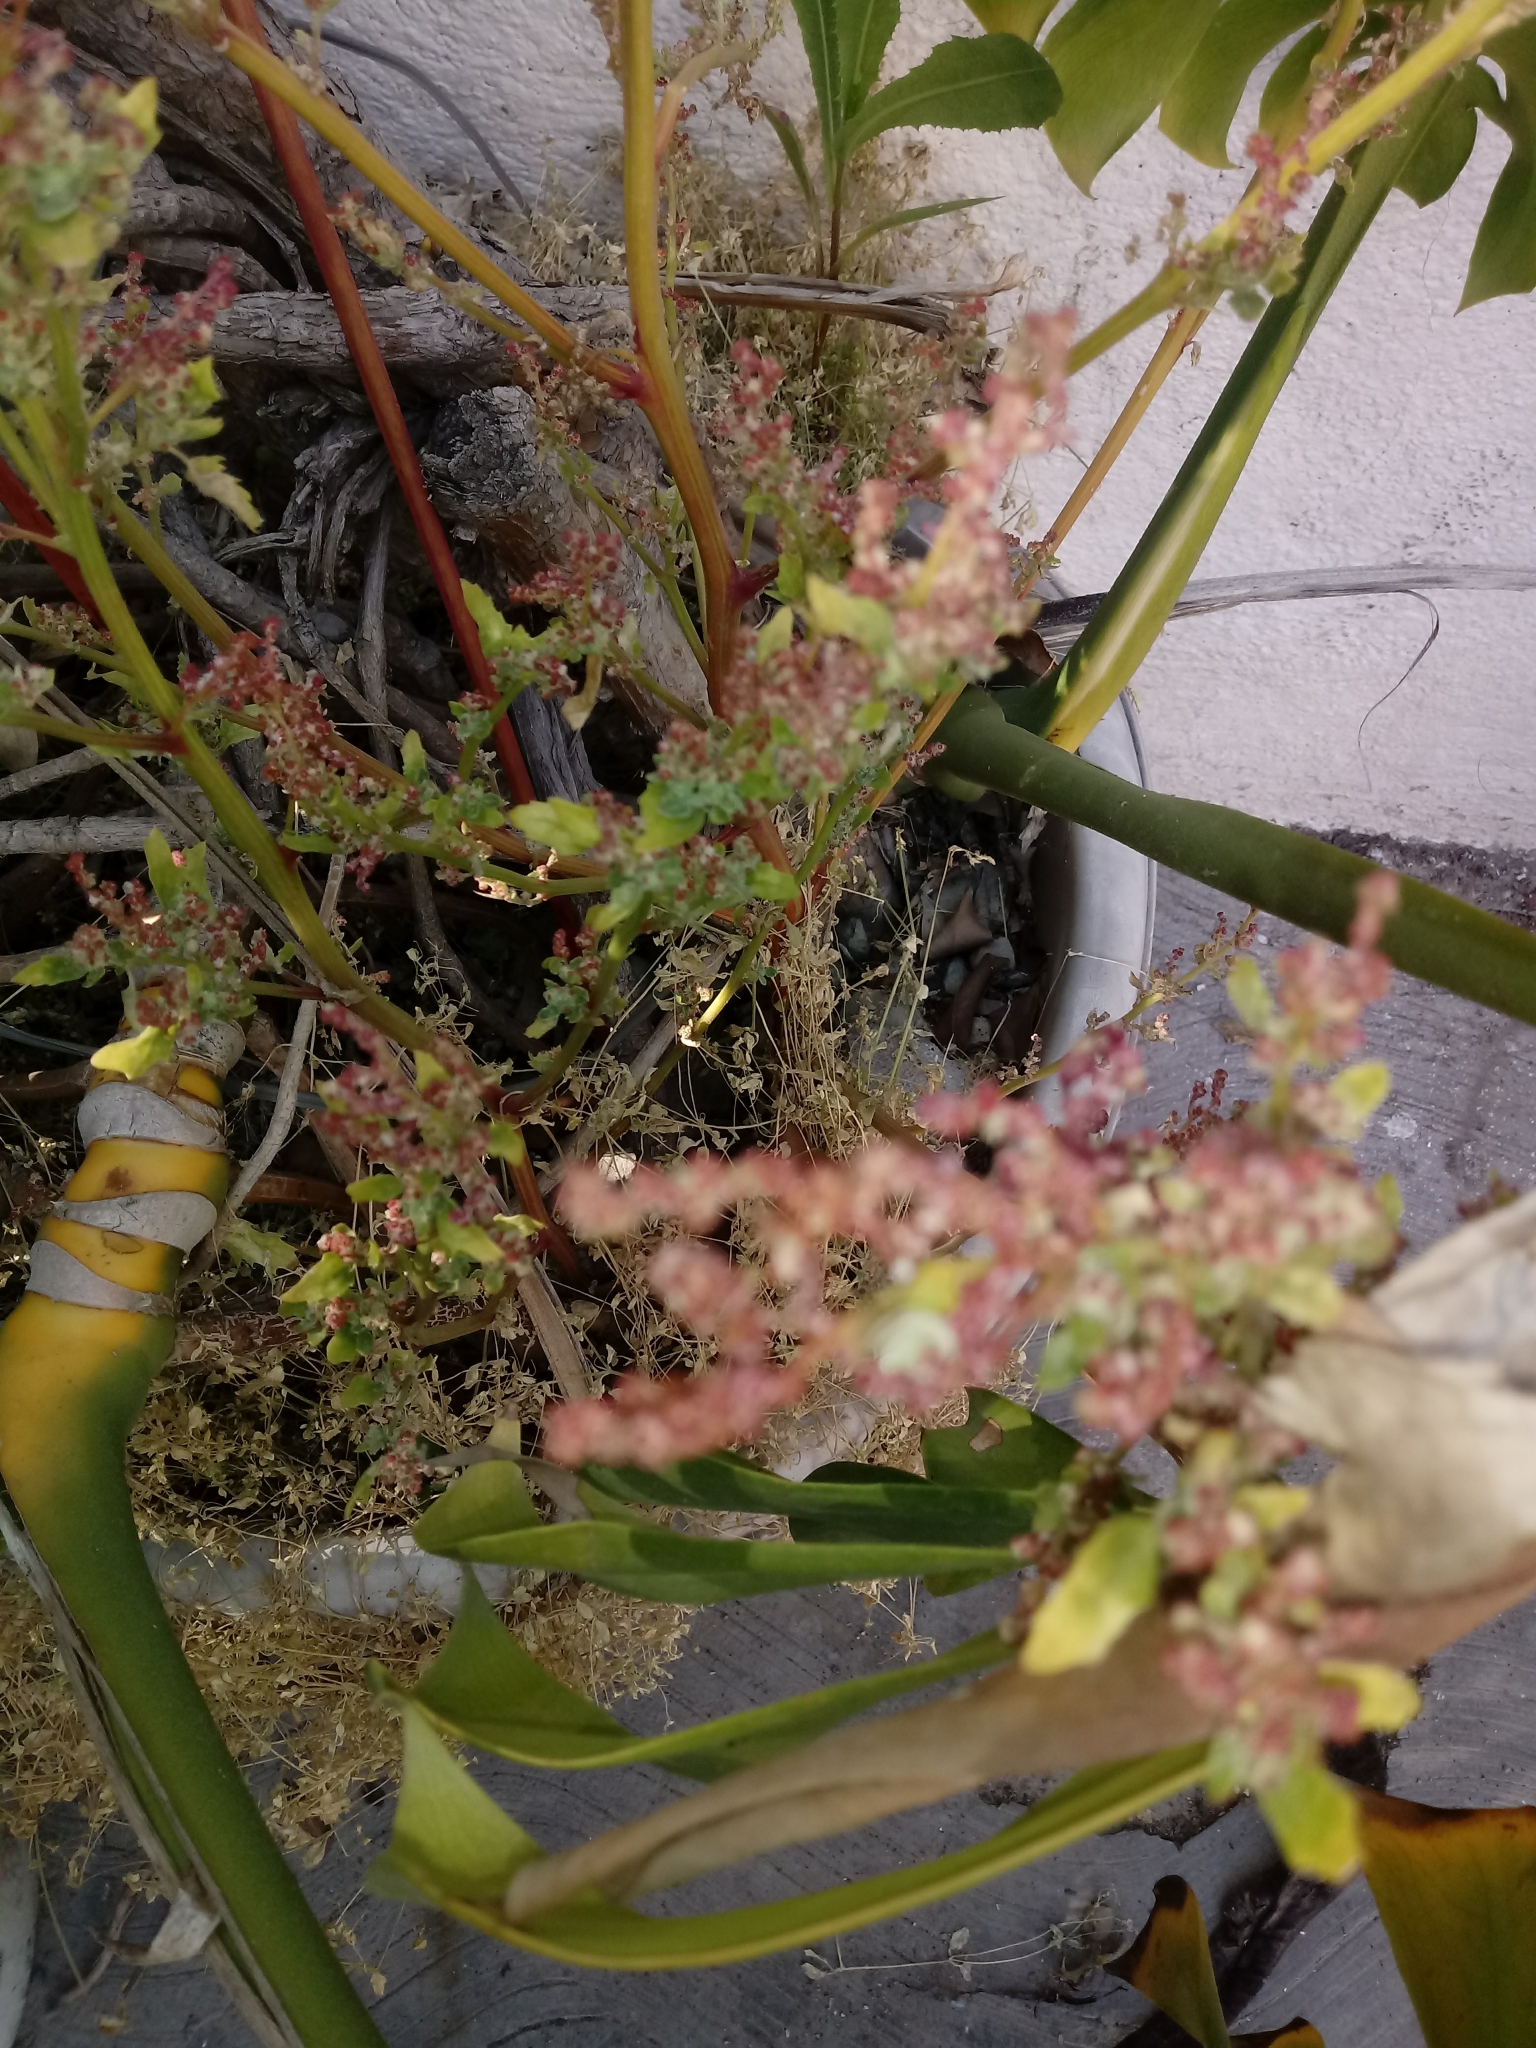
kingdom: Plantae
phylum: Tracheophyta
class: Magnoliopsida
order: Caryophyllales
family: Amaranthaceae
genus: Chenopodiastrum
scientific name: Chenopodiastrum murale
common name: Sowbane
